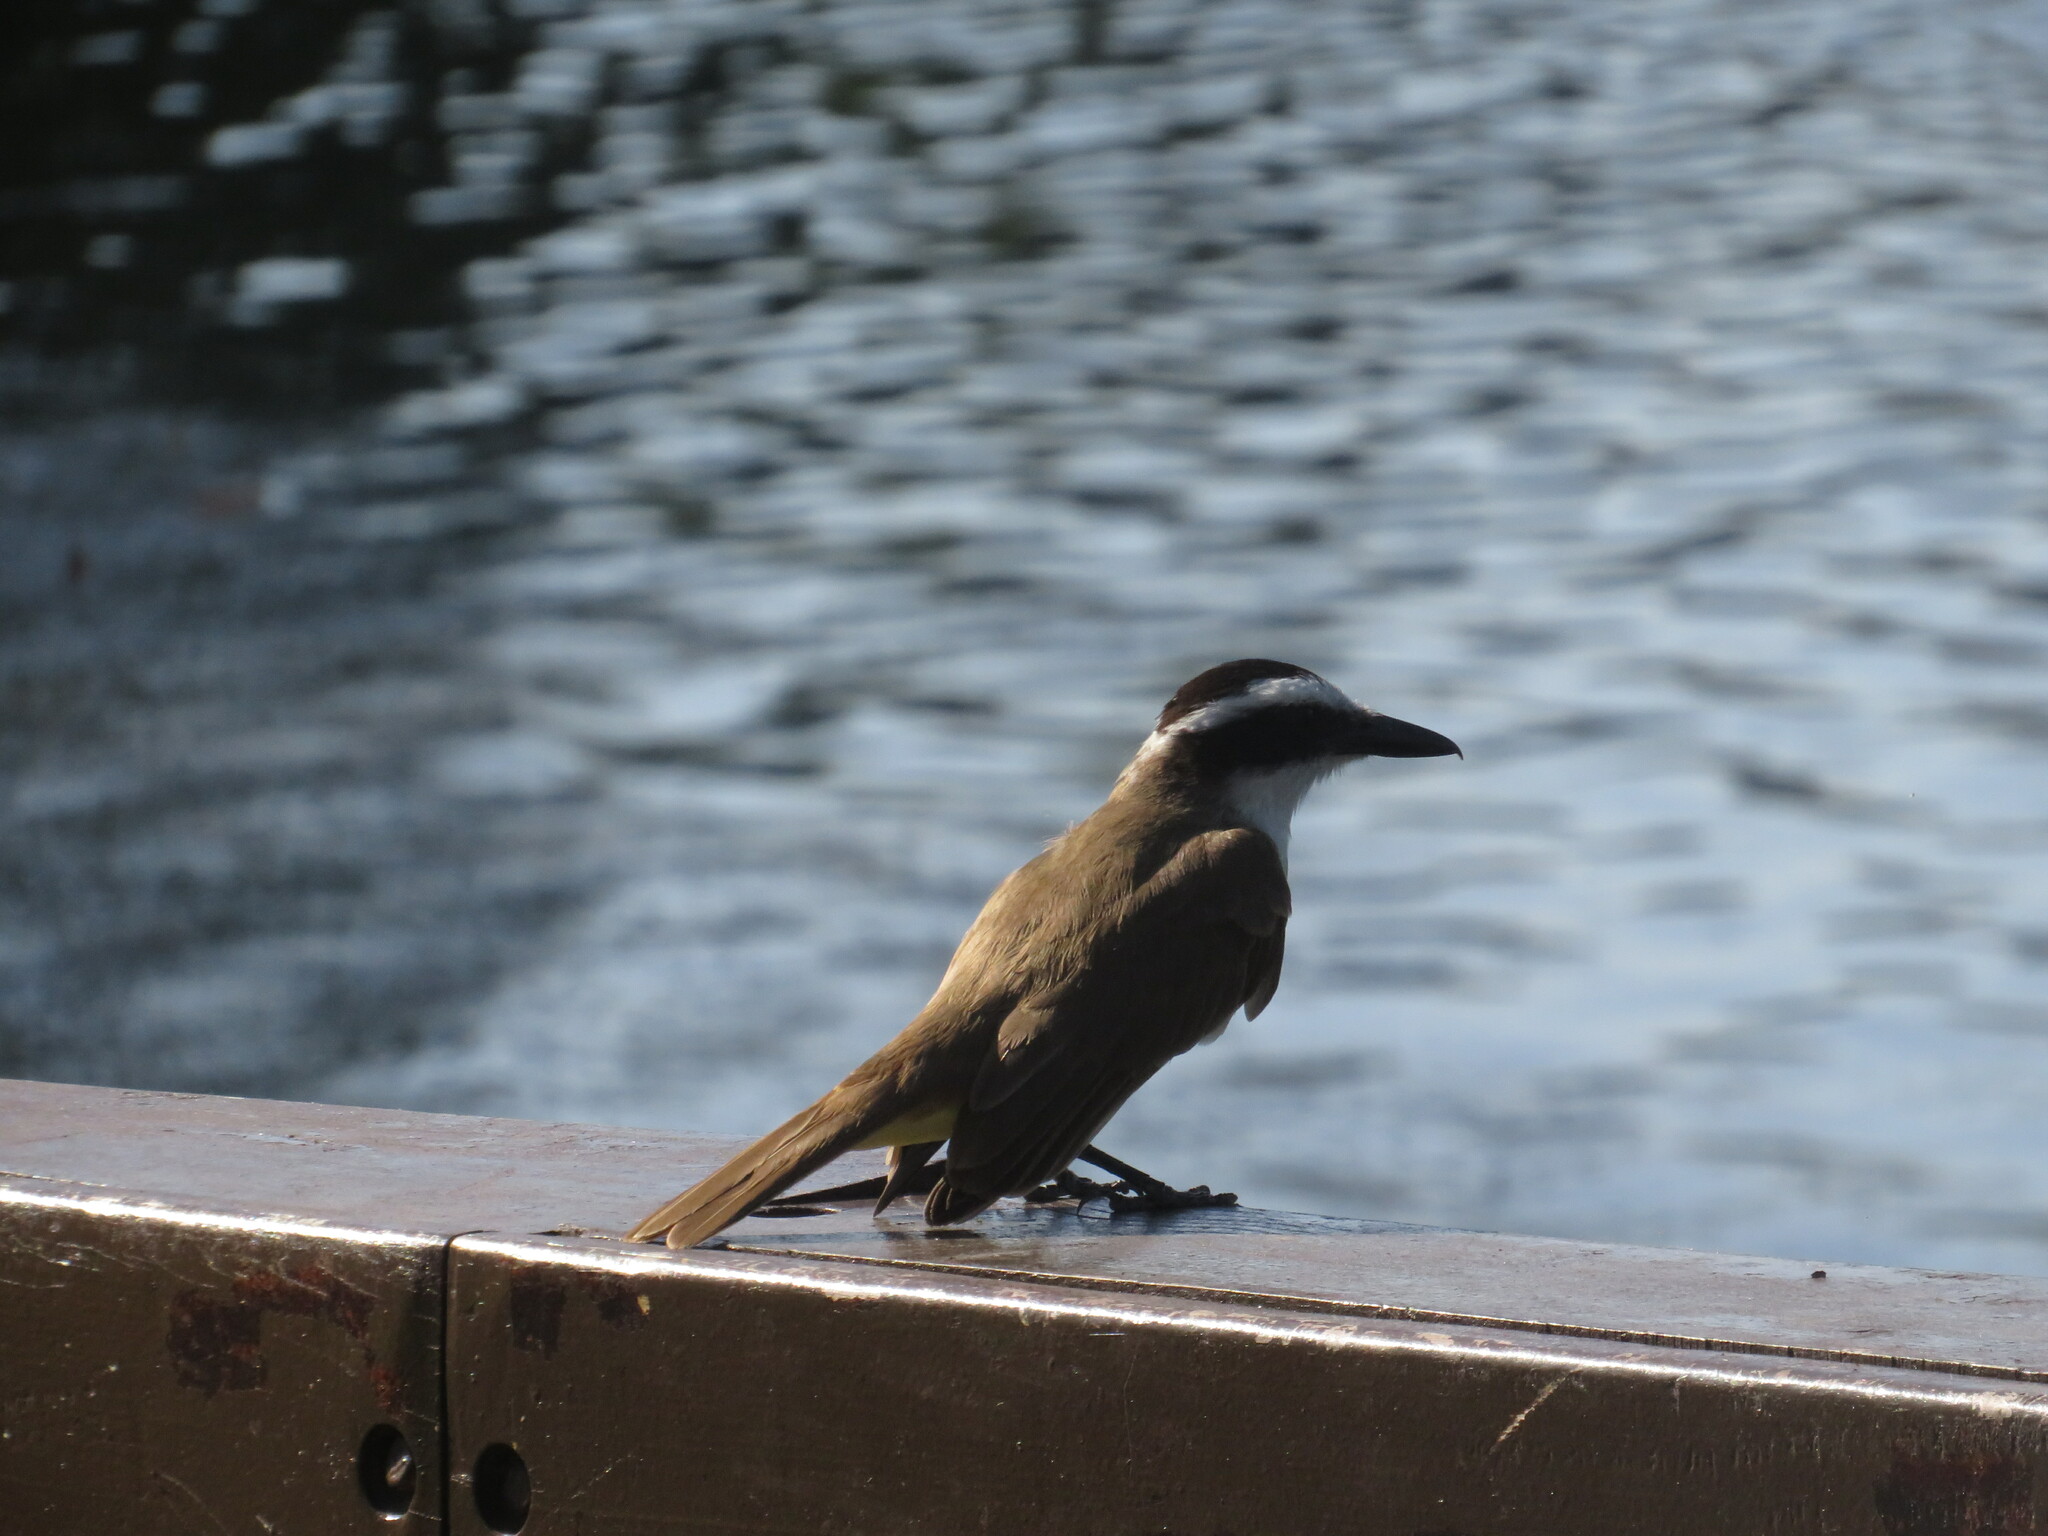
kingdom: Animalia
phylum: Chordata
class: Aves
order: Passeriformes
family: Tyrannidae
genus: Pitangus
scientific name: Pitangus sulphuratus
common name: Great kiskadee
